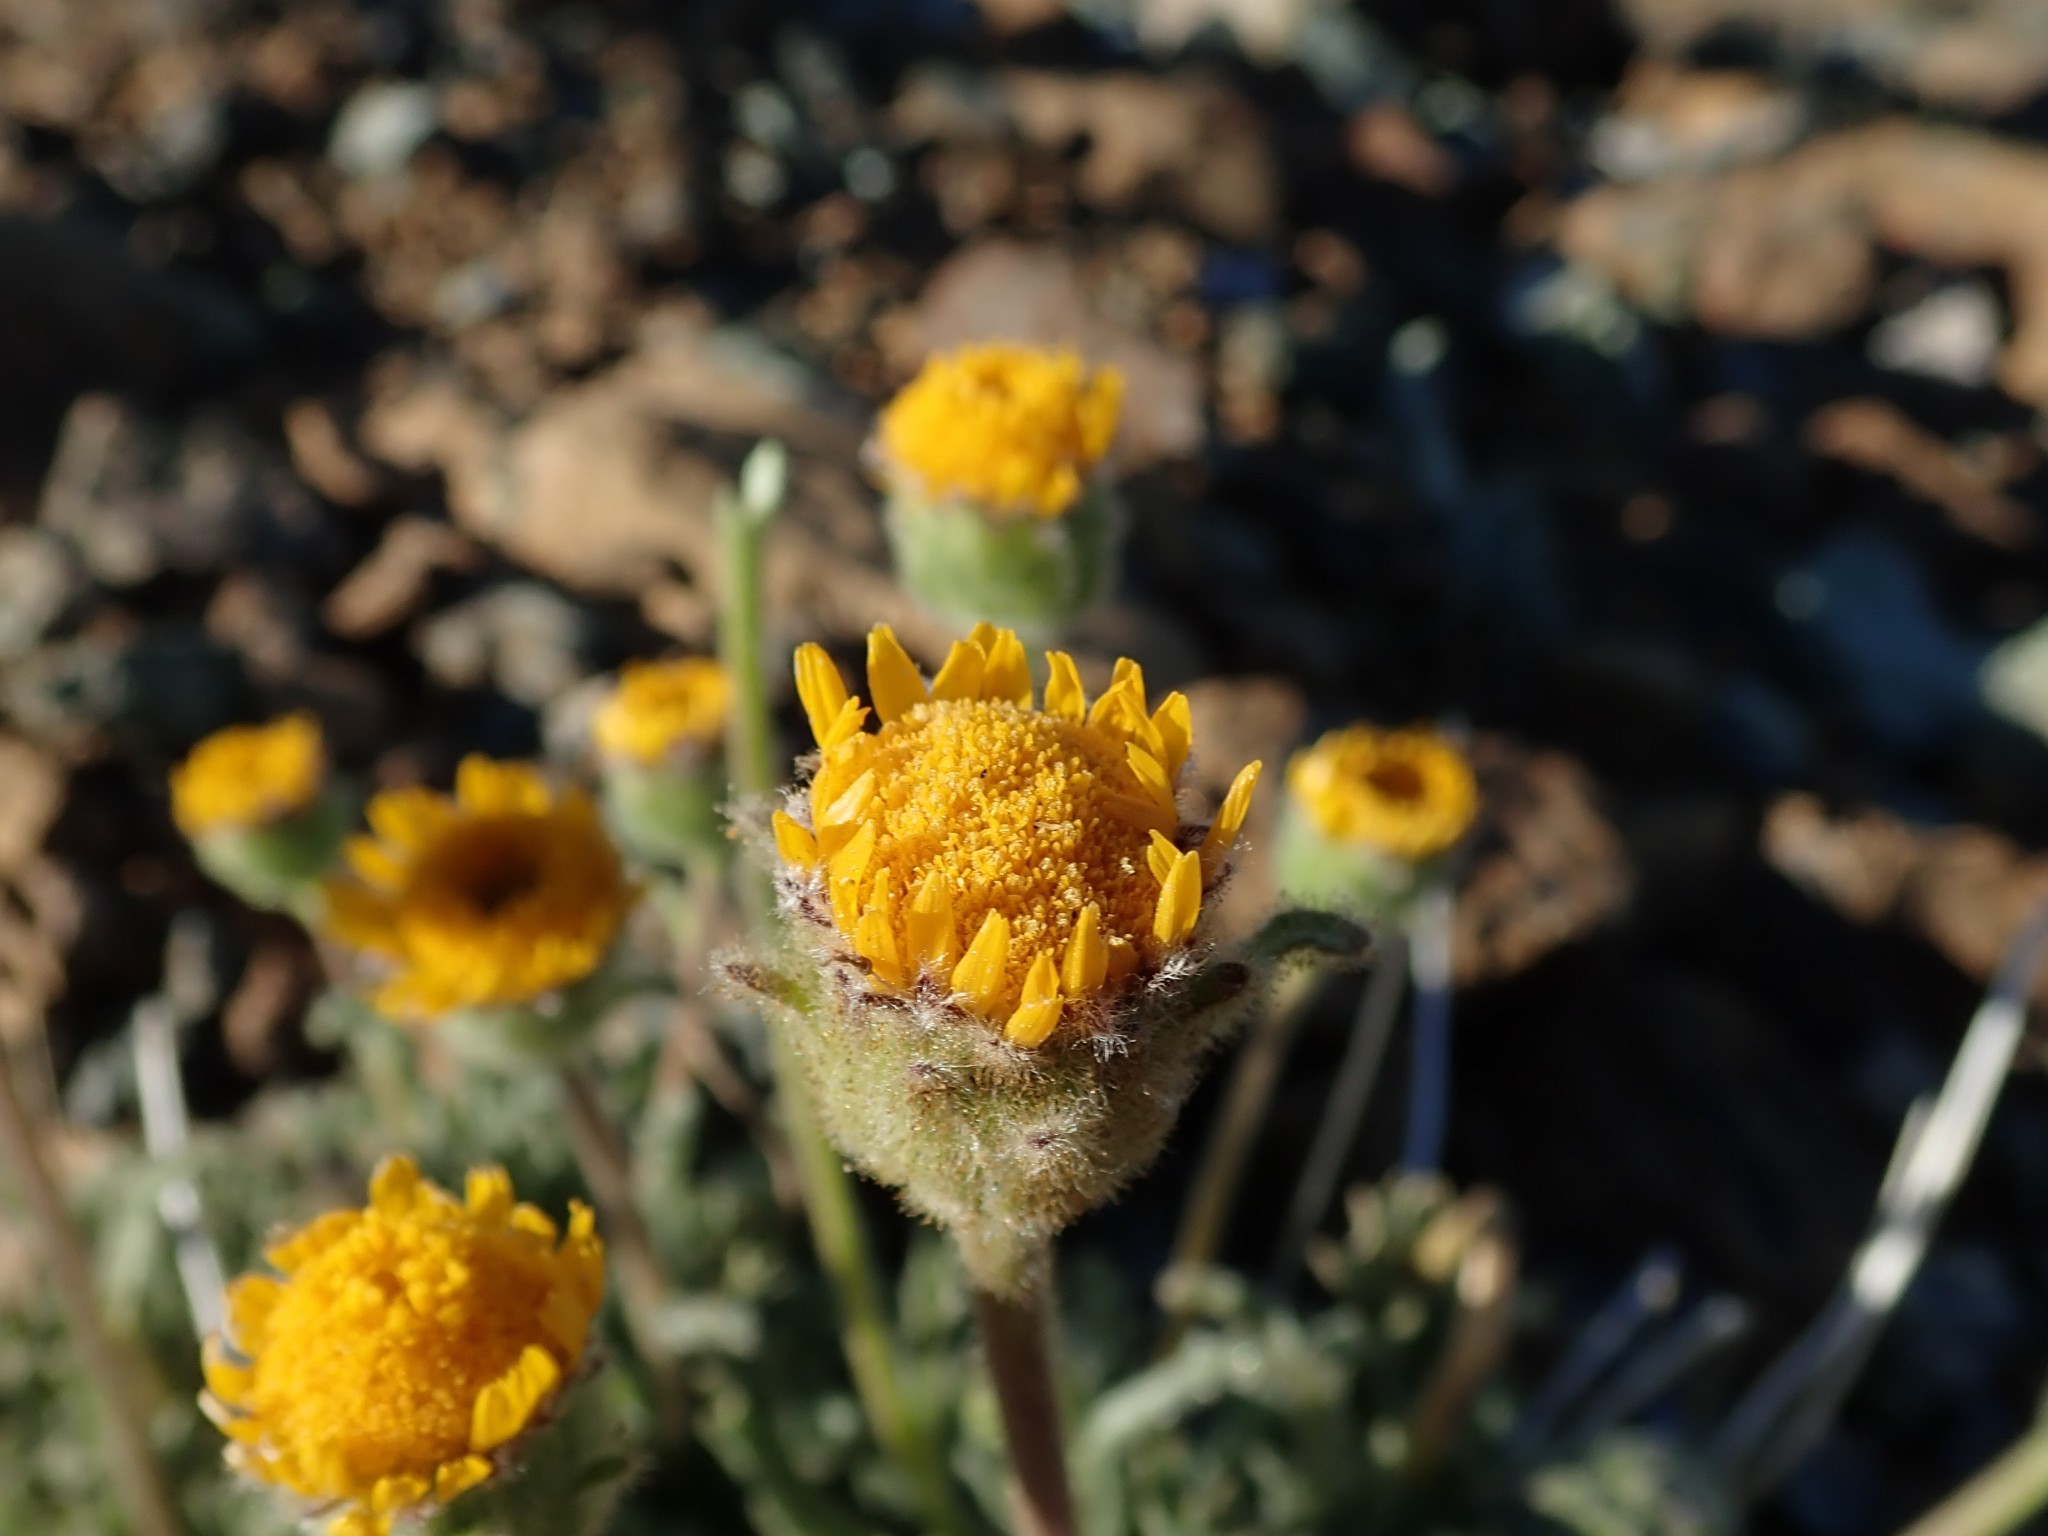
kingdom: Plantae
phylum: Tracheophyta
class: Magnoliopsida
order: Asterales
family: Asteraceae
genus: Hulsea
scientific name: Hulsea nana
